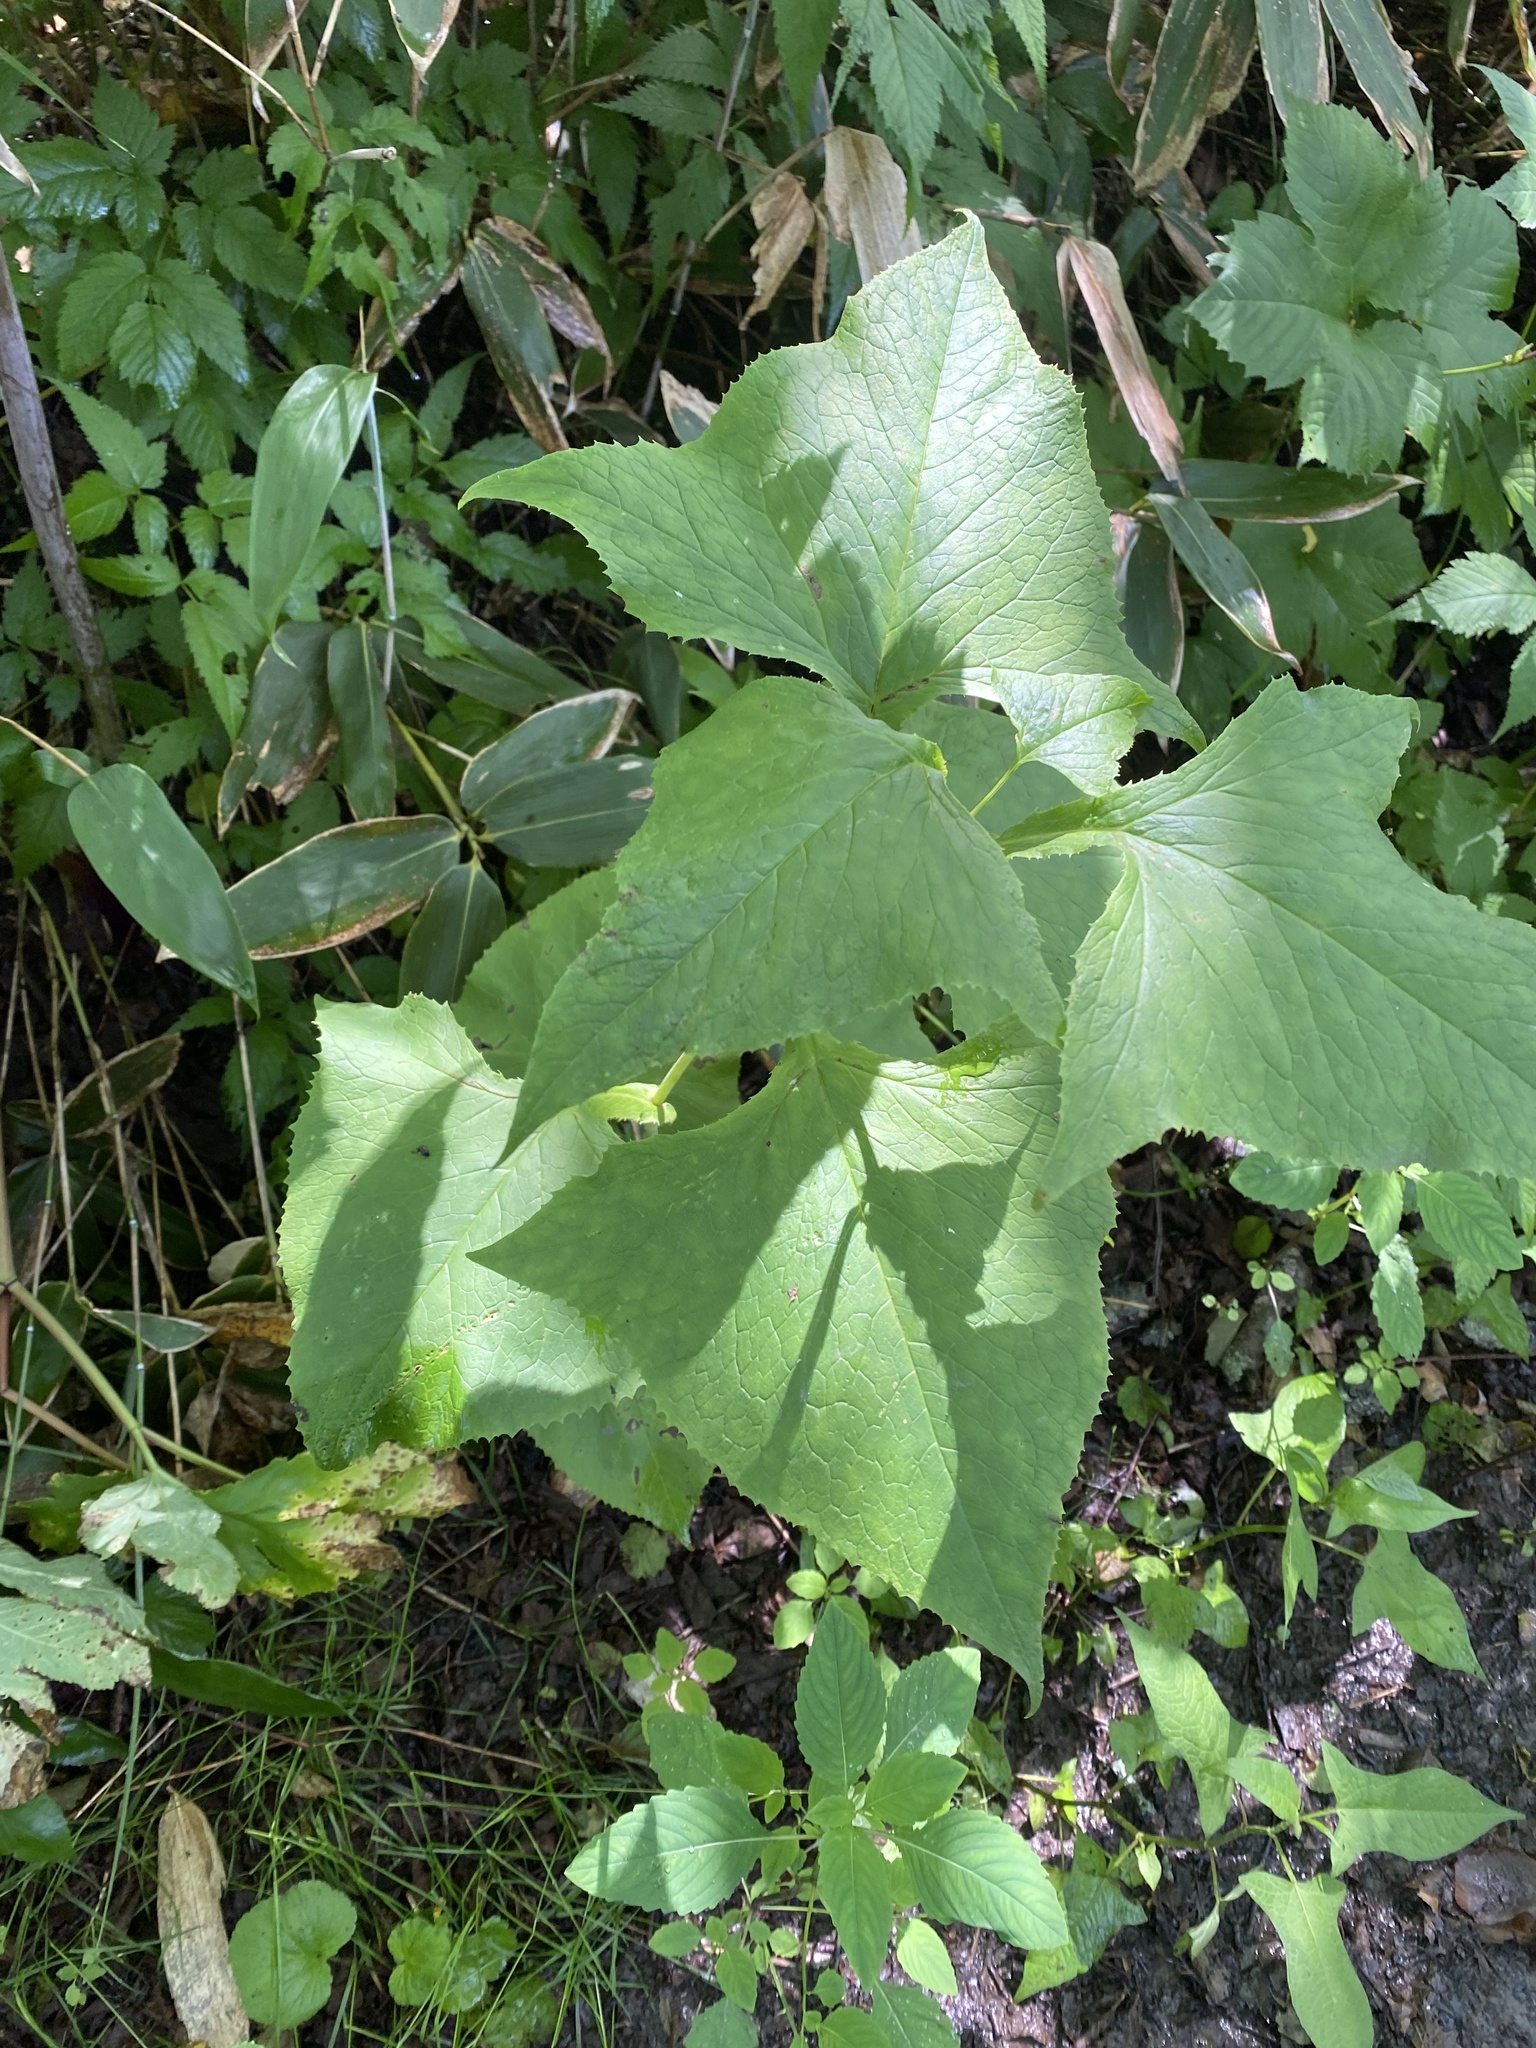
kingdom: Plantae
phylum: Tracheophyta
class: Magnoliopsida
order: Asterales
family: Asteraceae
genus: Parasenecio
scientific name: Parasenecio hastatus
